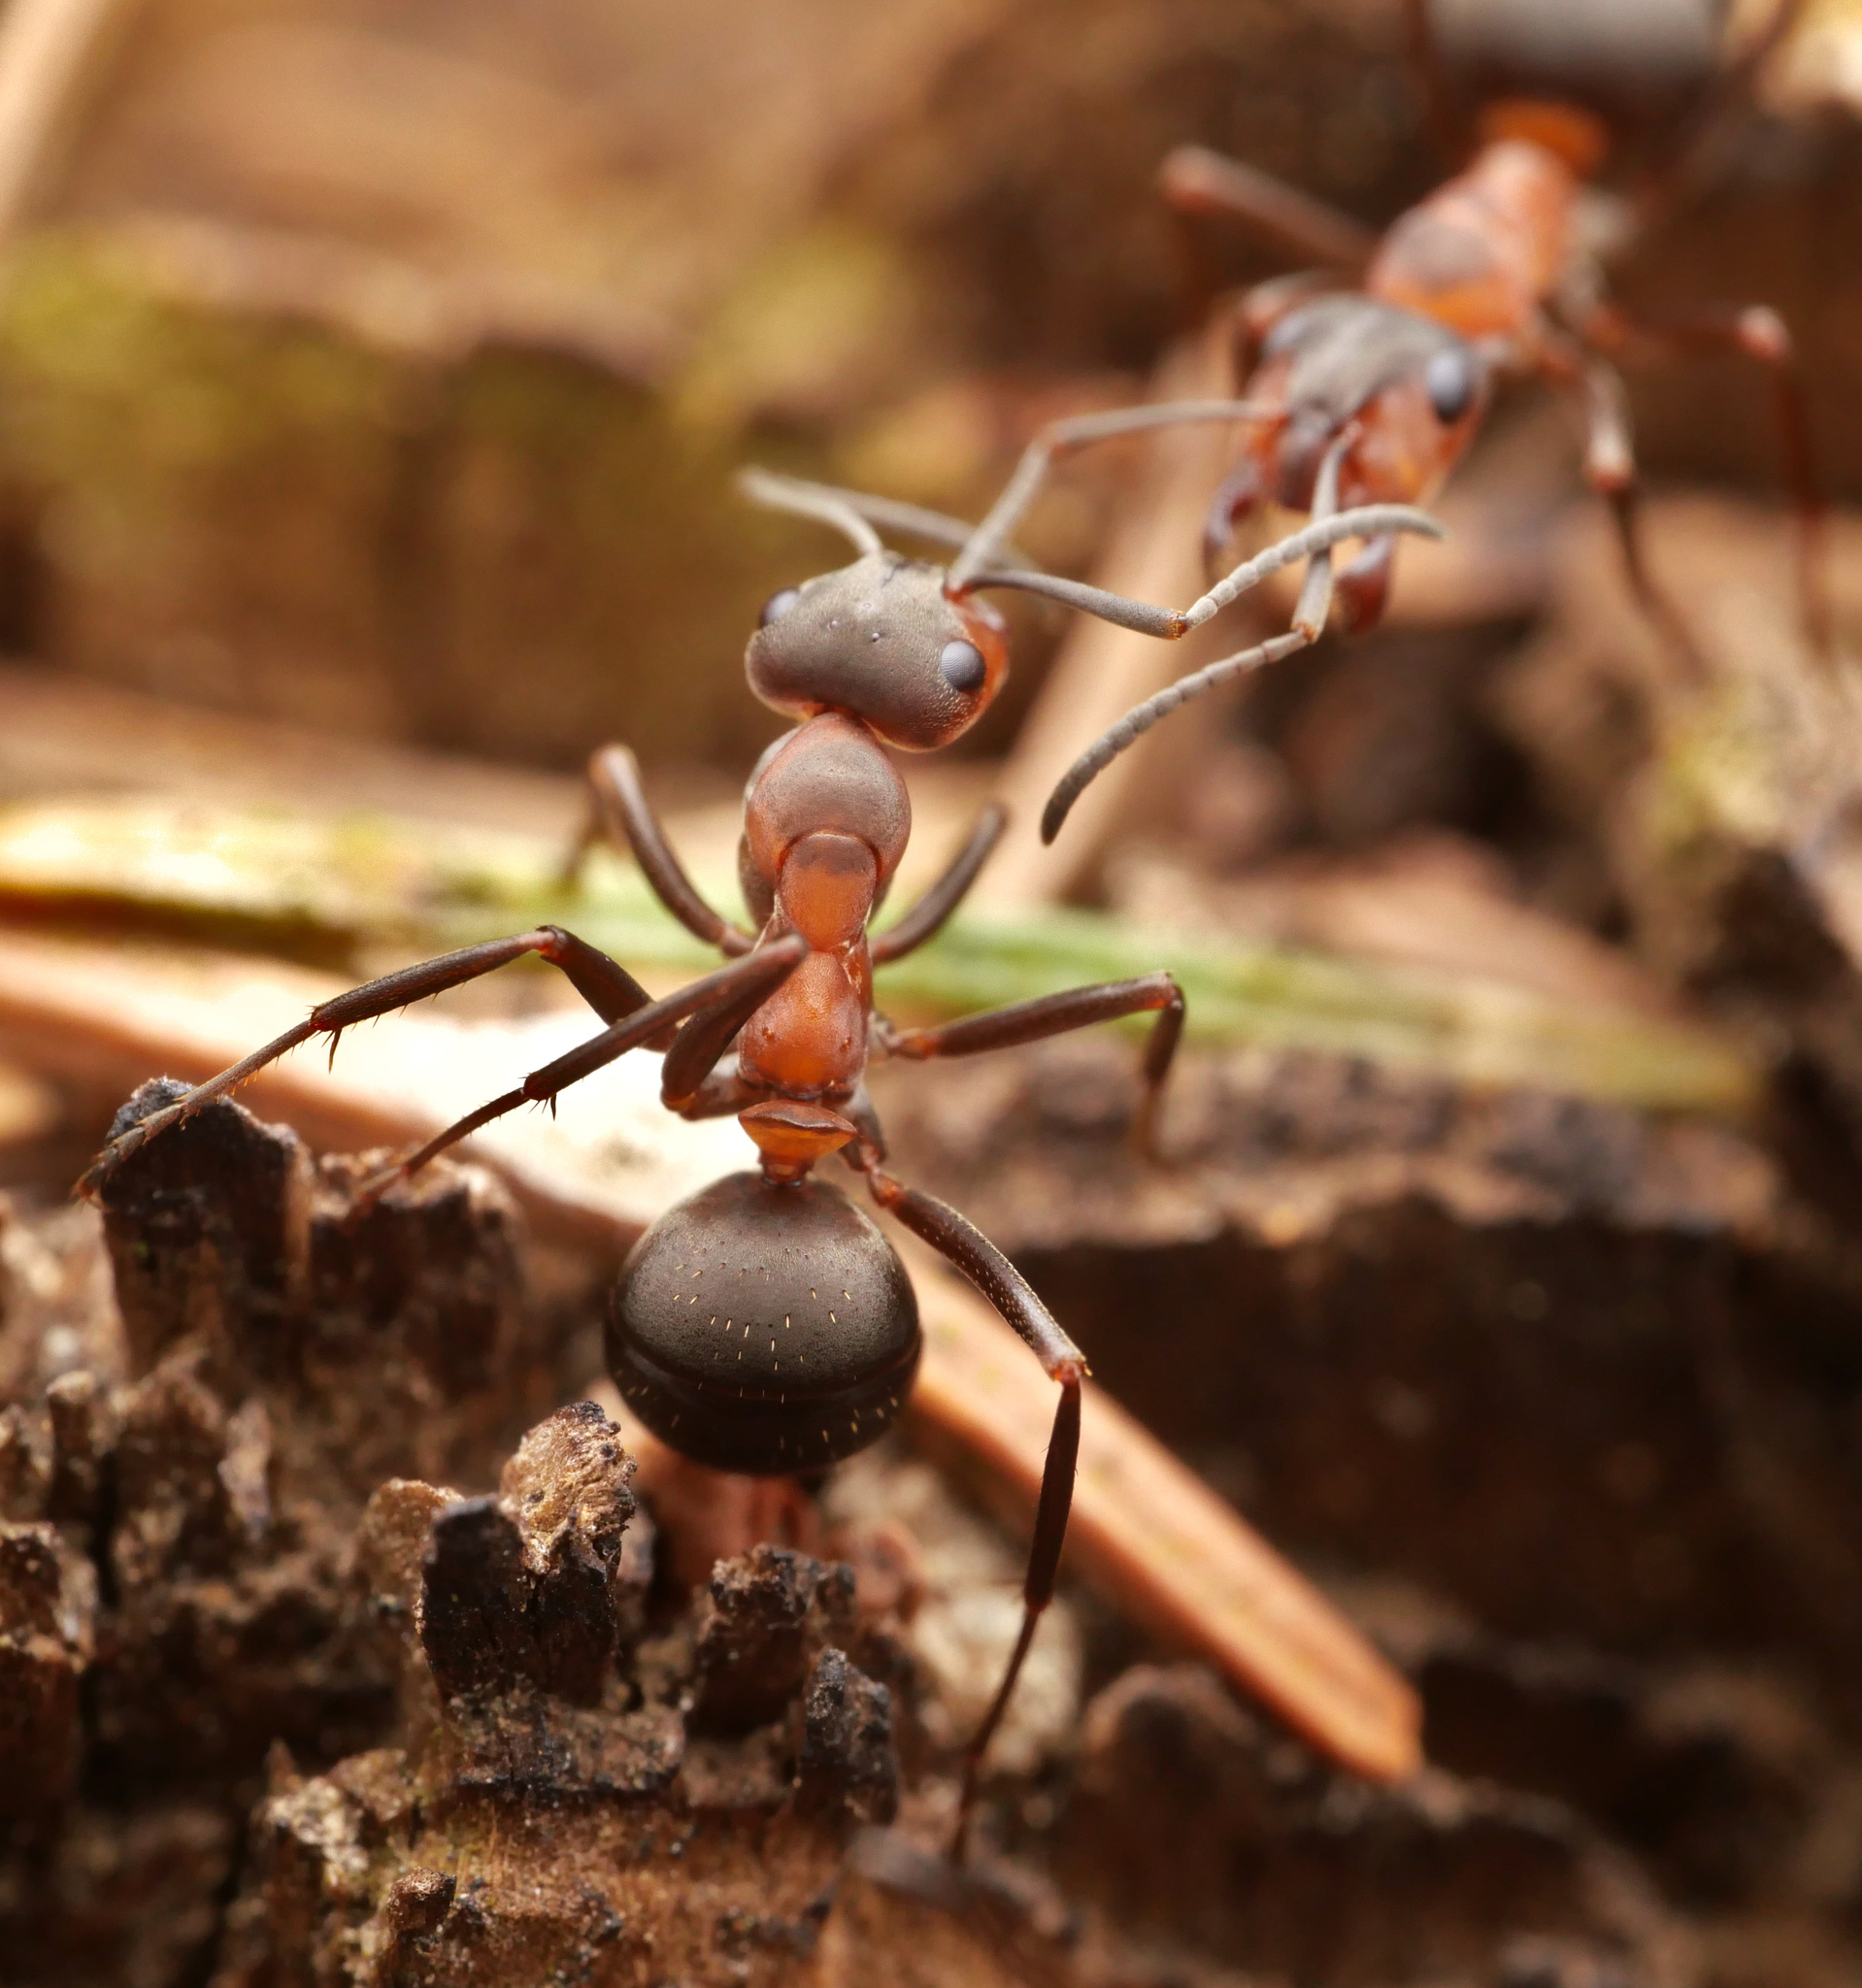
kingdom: Animalia
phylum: Arthropoda
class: Insecta
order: Hymenoptera
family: Formicidae
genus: Formica
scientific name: Formica polyctena
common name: European red wood ant
